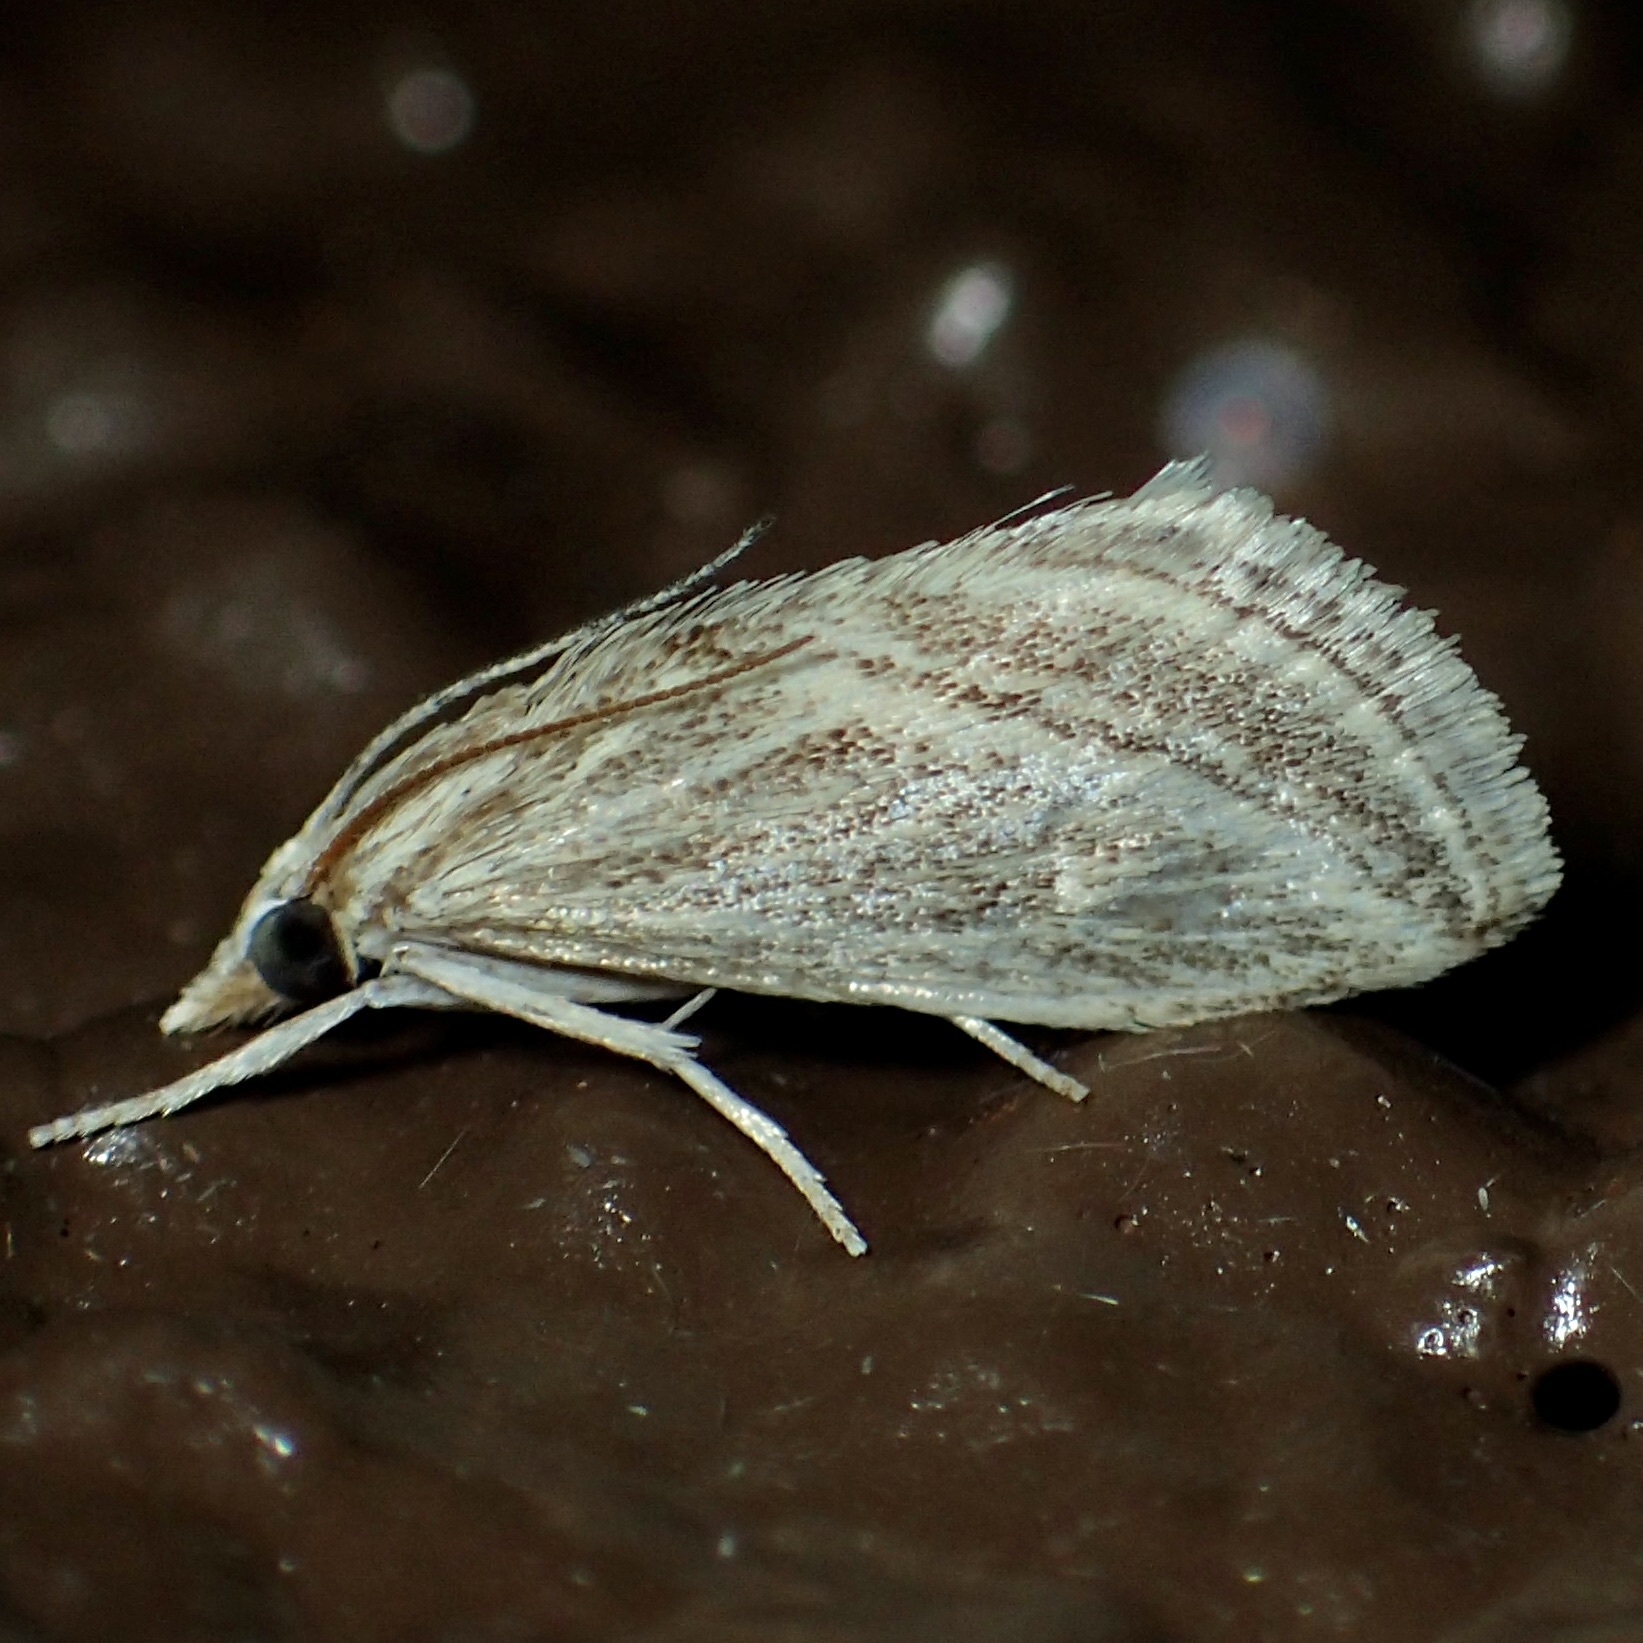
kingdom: Animalia
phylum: Arthropoda
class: Insecta
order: Lepidoptera
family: Crambidae
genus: Procymbopteryx
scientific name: Procymbopteryx belialis
